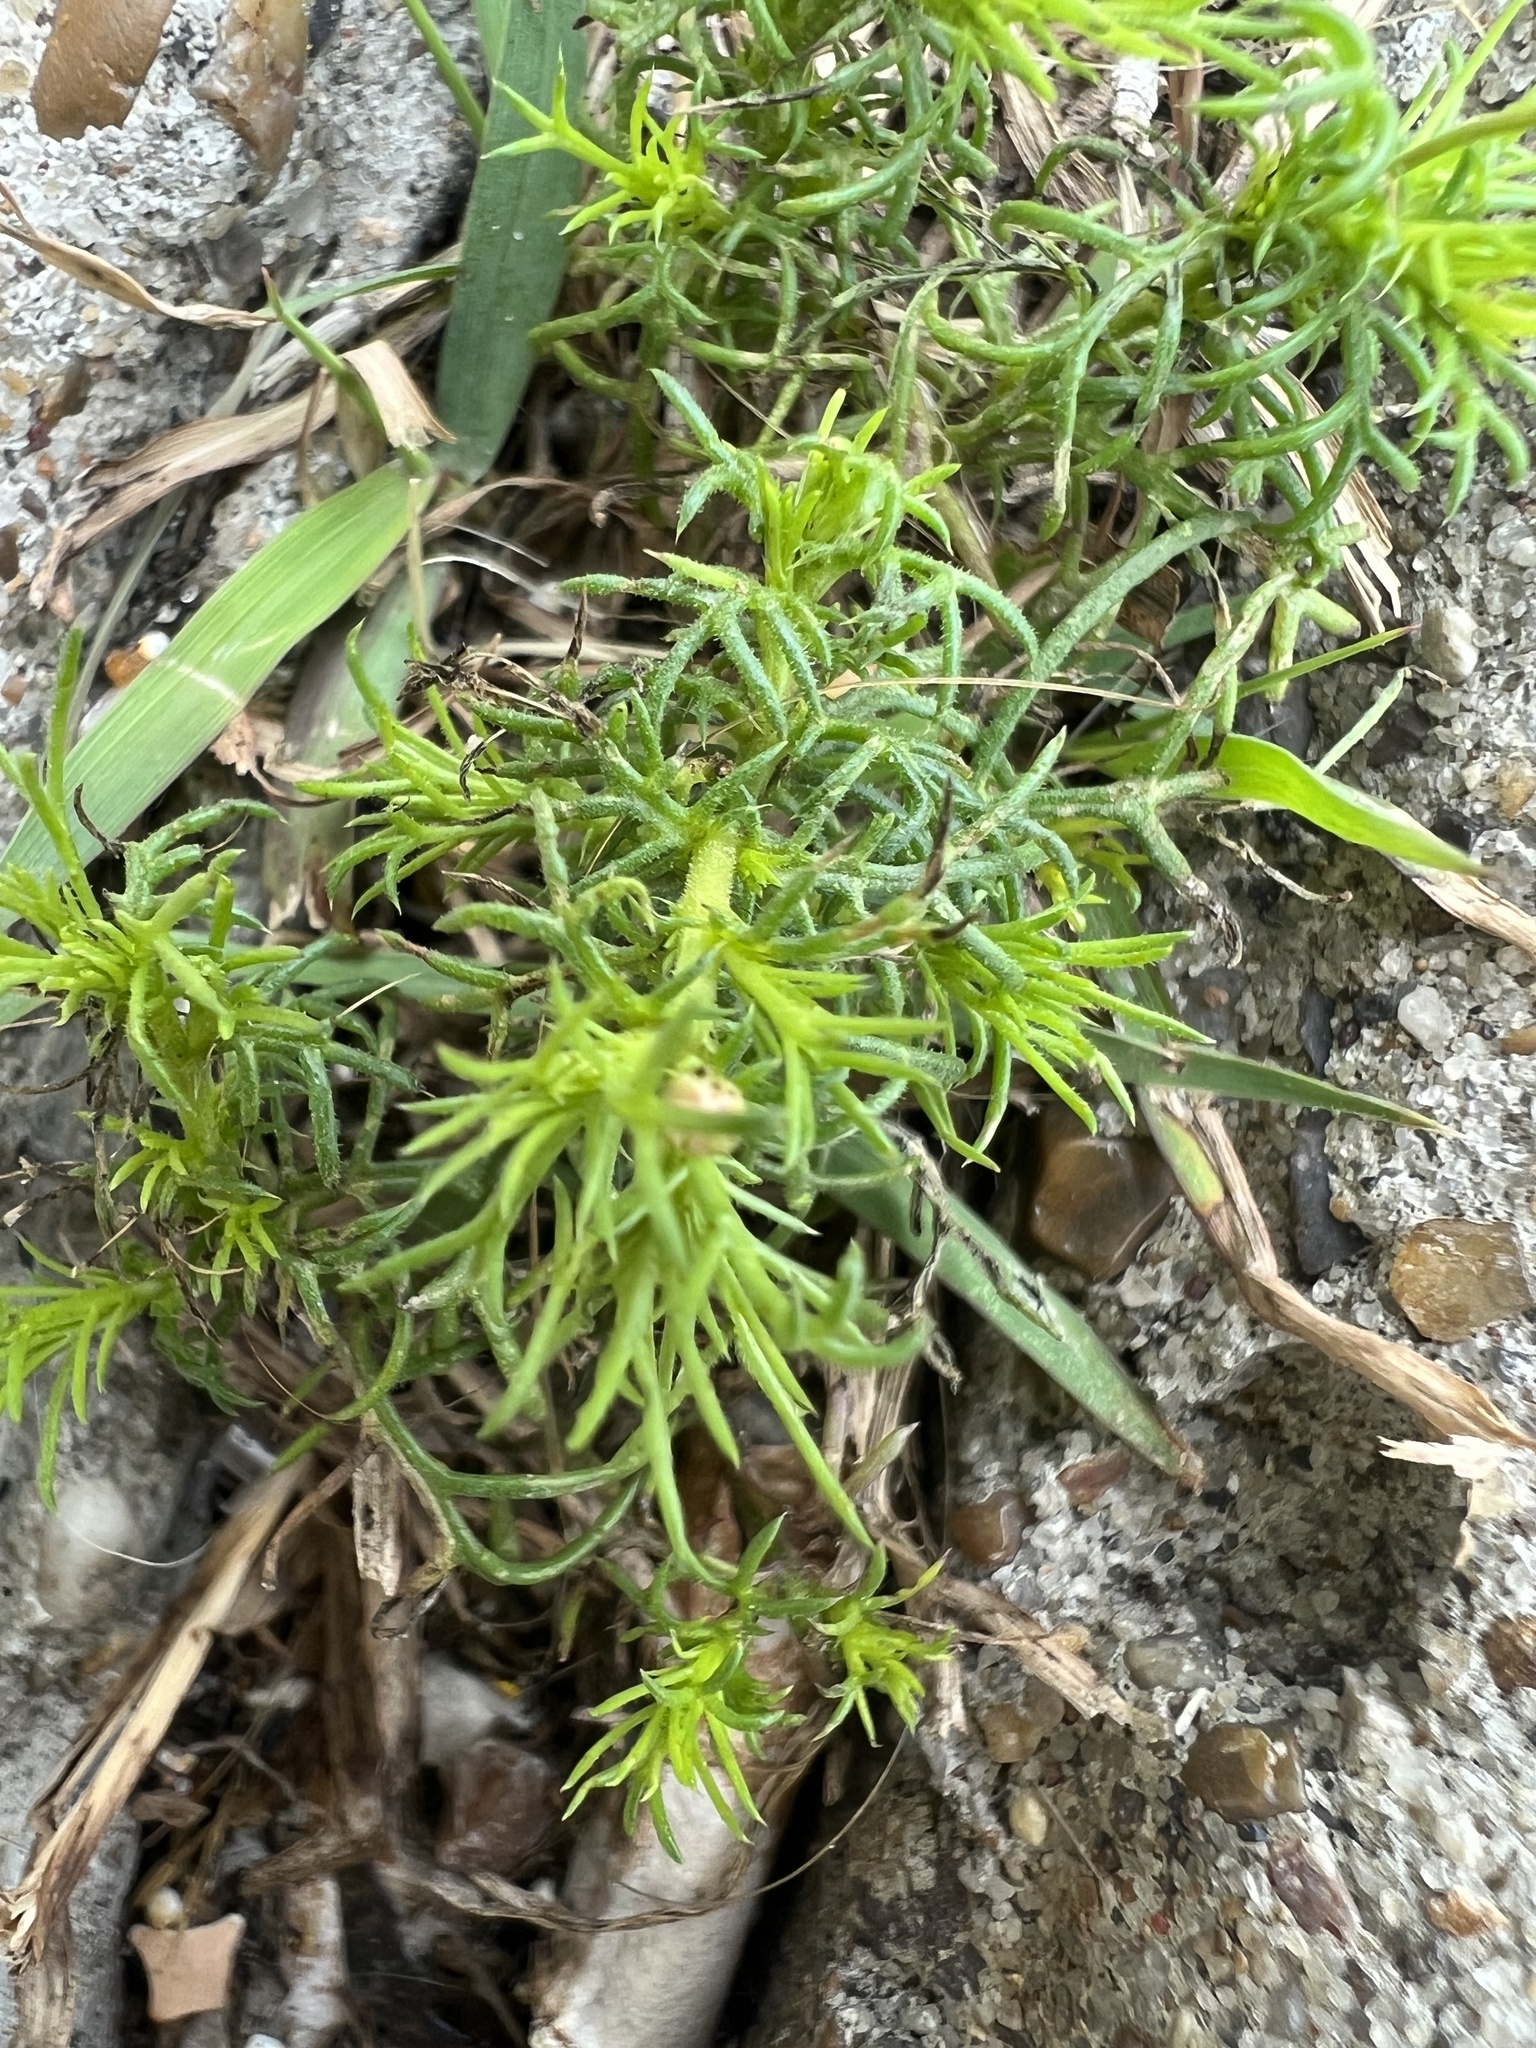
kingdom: Plantae
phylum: Tracheophyta
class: Magnoliopsida
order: Asterales
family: Asteraceae
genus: Thymophylla
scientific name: Thymophylla tenuiloba
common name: Dahlberg's daisy
